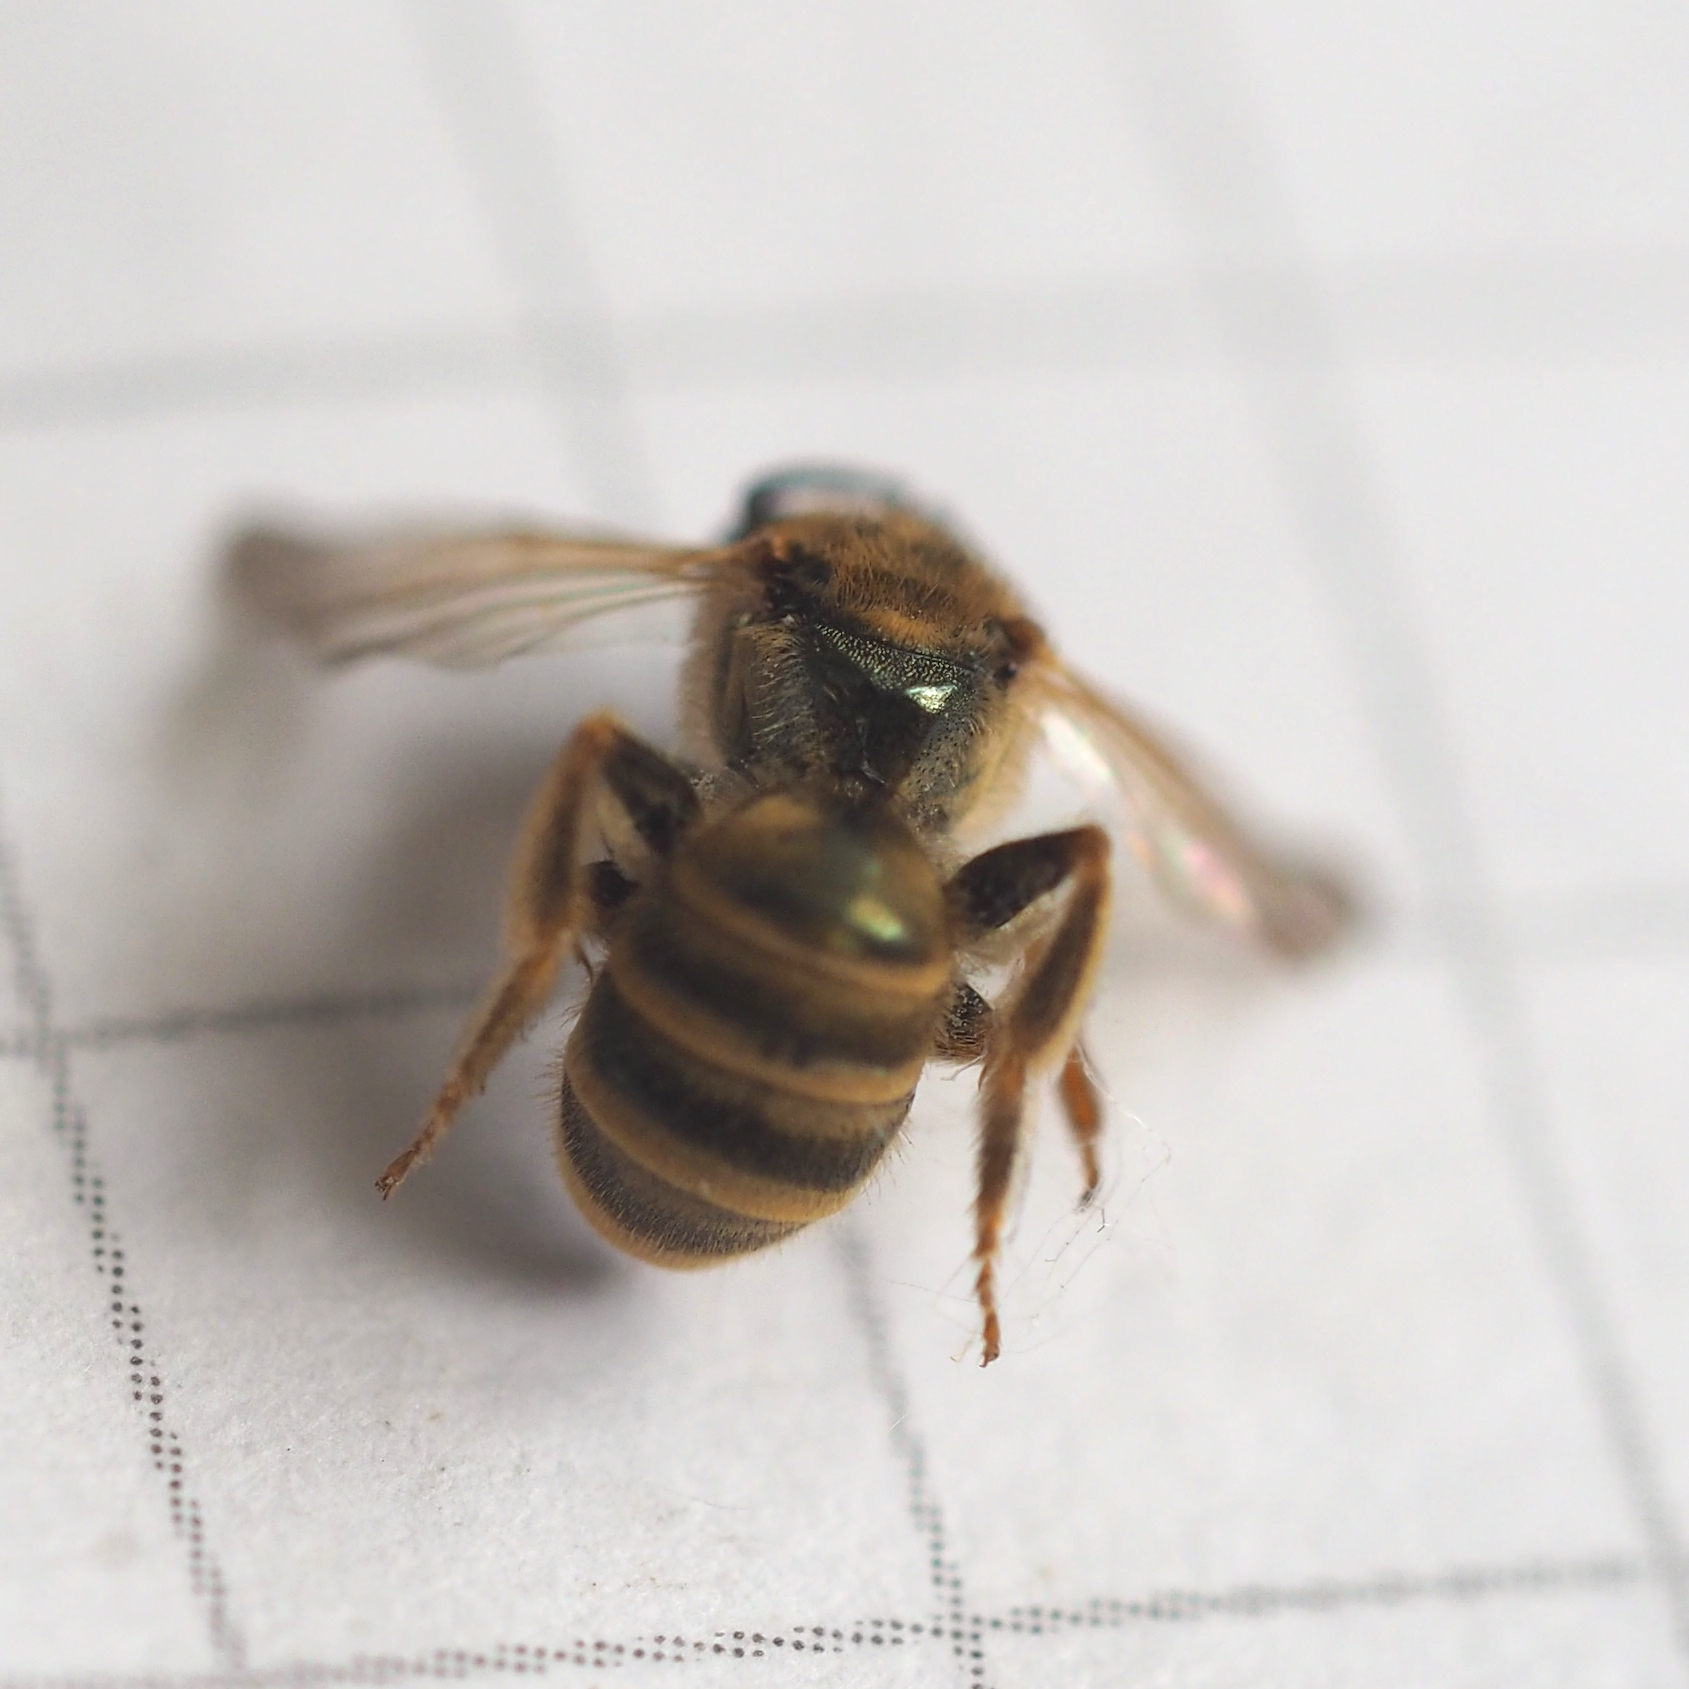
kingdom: Animalia
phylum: Arthropoda
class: Insecta
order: Hymenoptera
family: Halictidae
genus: Halictus
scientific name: Halictus subauratus
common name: Golden furrow bee
